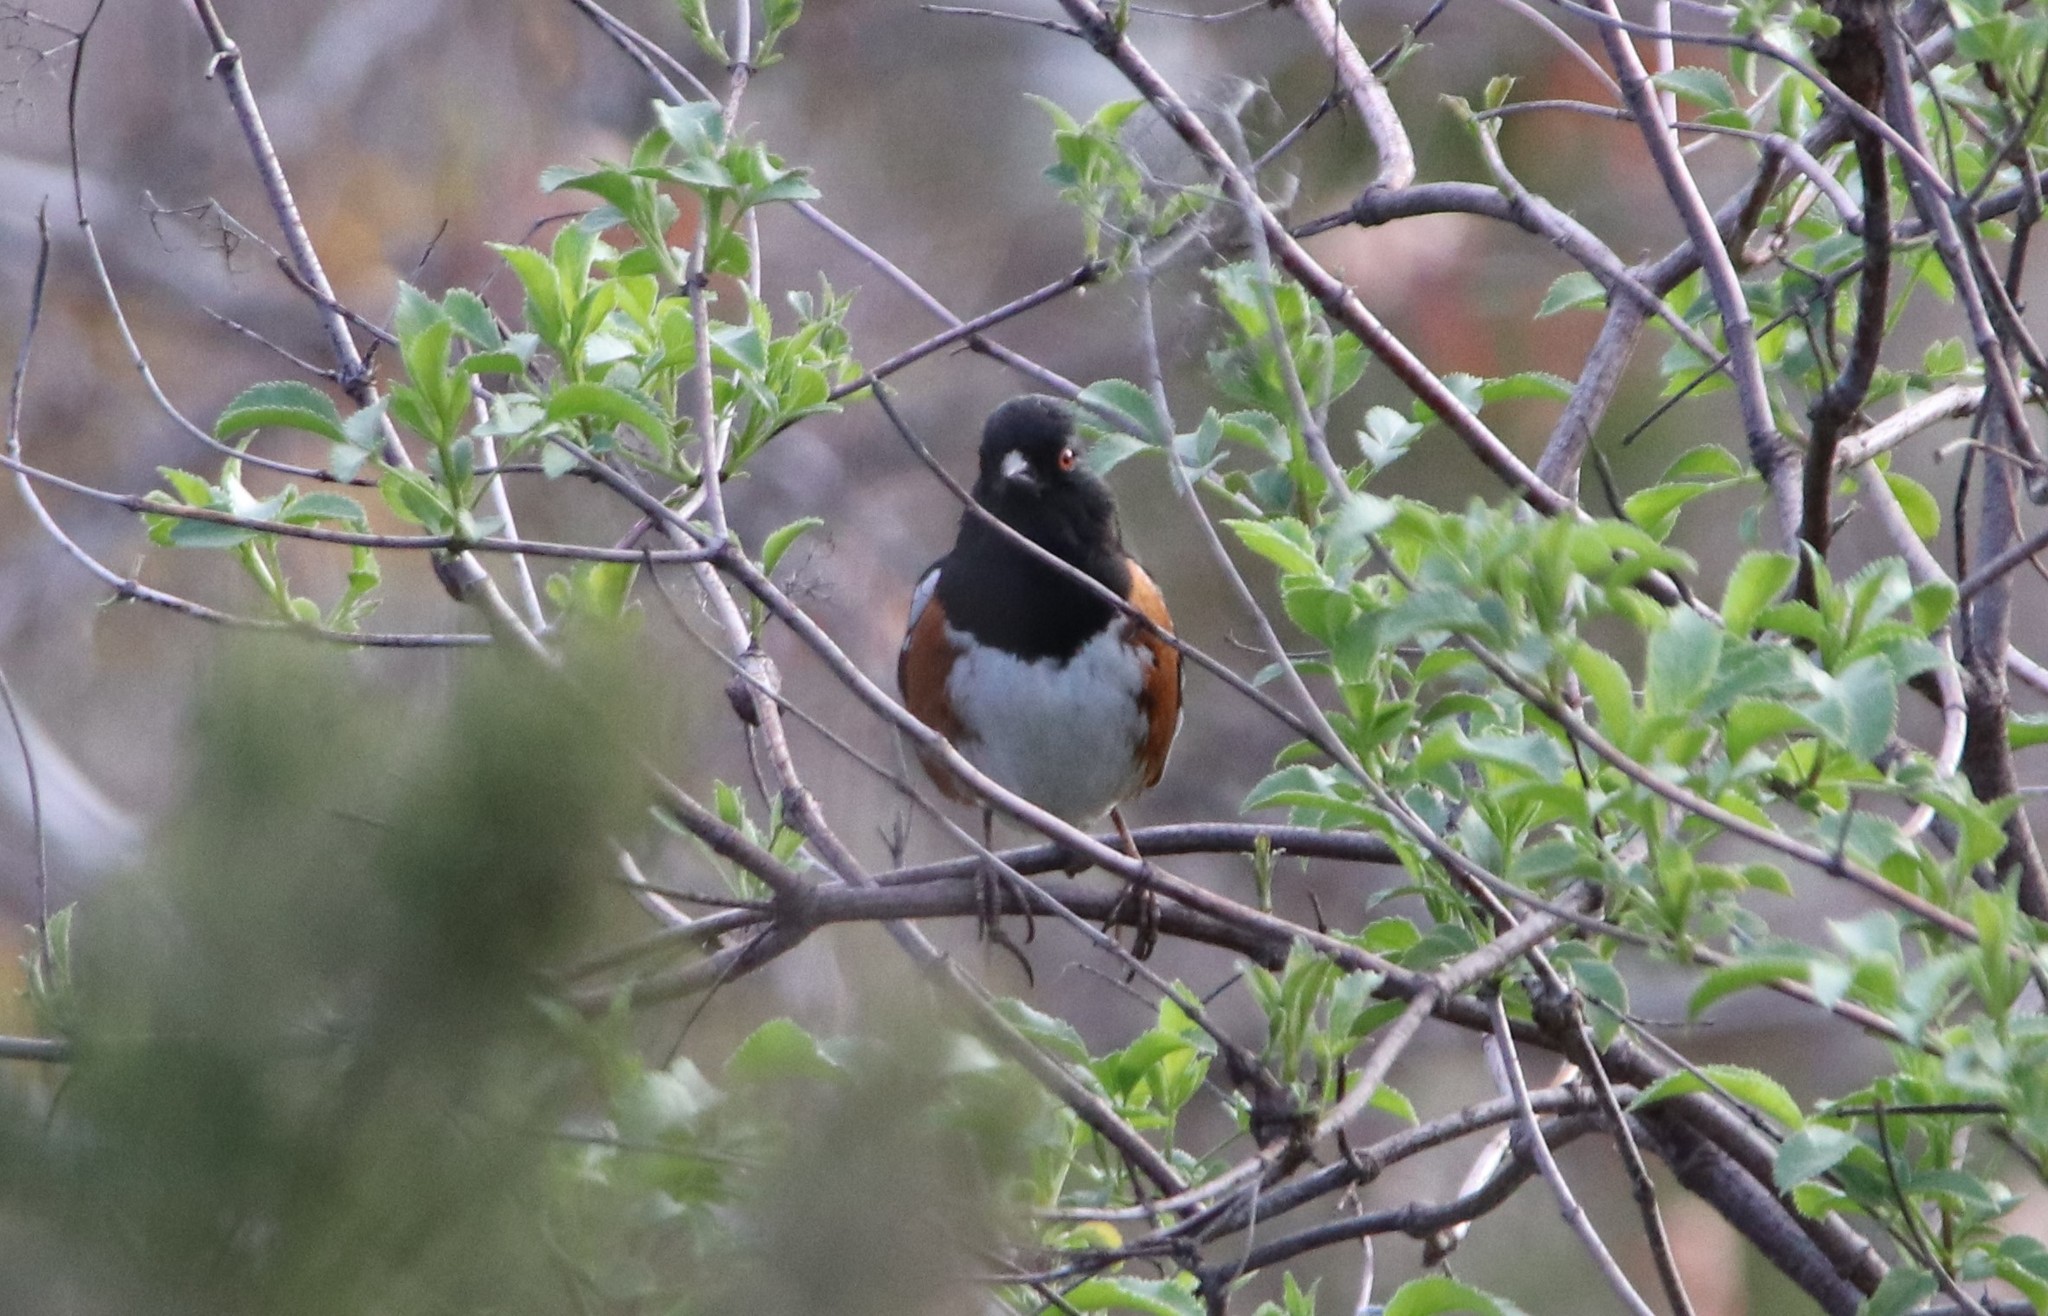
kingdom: Animalia
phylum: Chordata
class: Aves
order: Passeriformes
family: Passerellidae
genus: Pipilo
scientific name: Pipilo maculatus
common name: Spotted towhee
